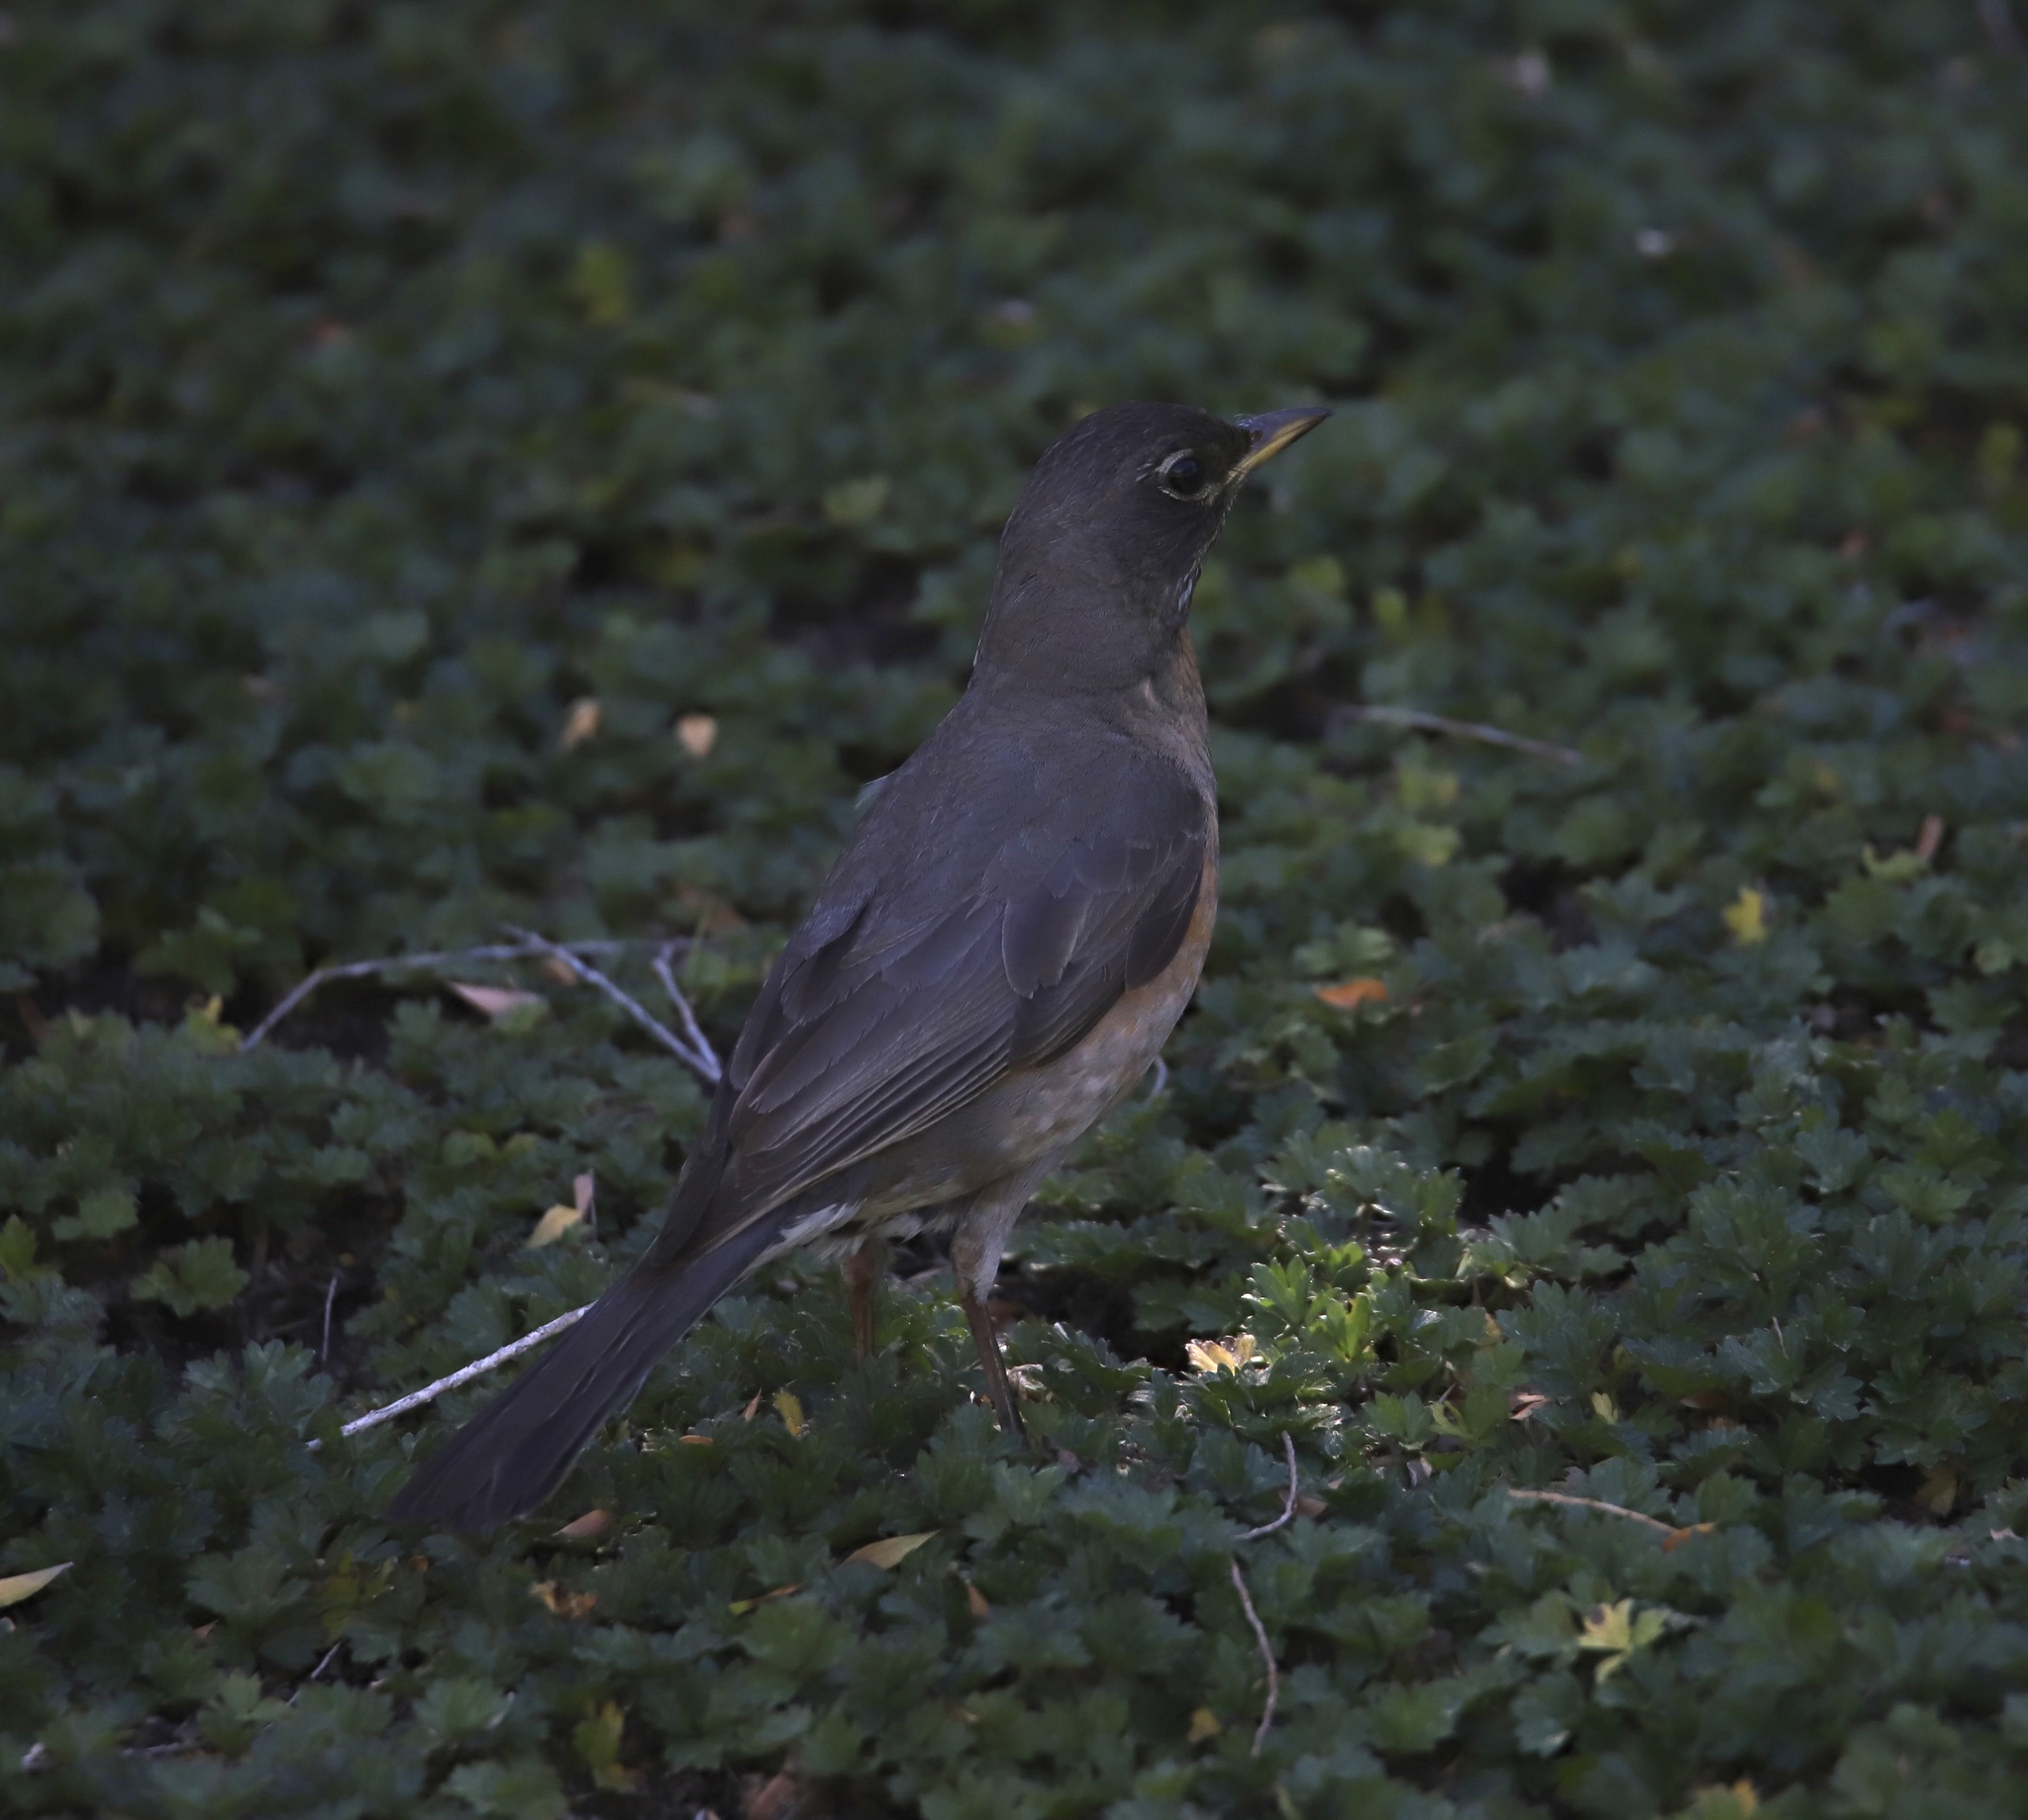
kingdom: Animalia
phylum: Chordata
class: Aves
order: Passeriformes
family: Turdidae
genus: Turdus
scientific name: Turdus migratorius
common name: American robin
